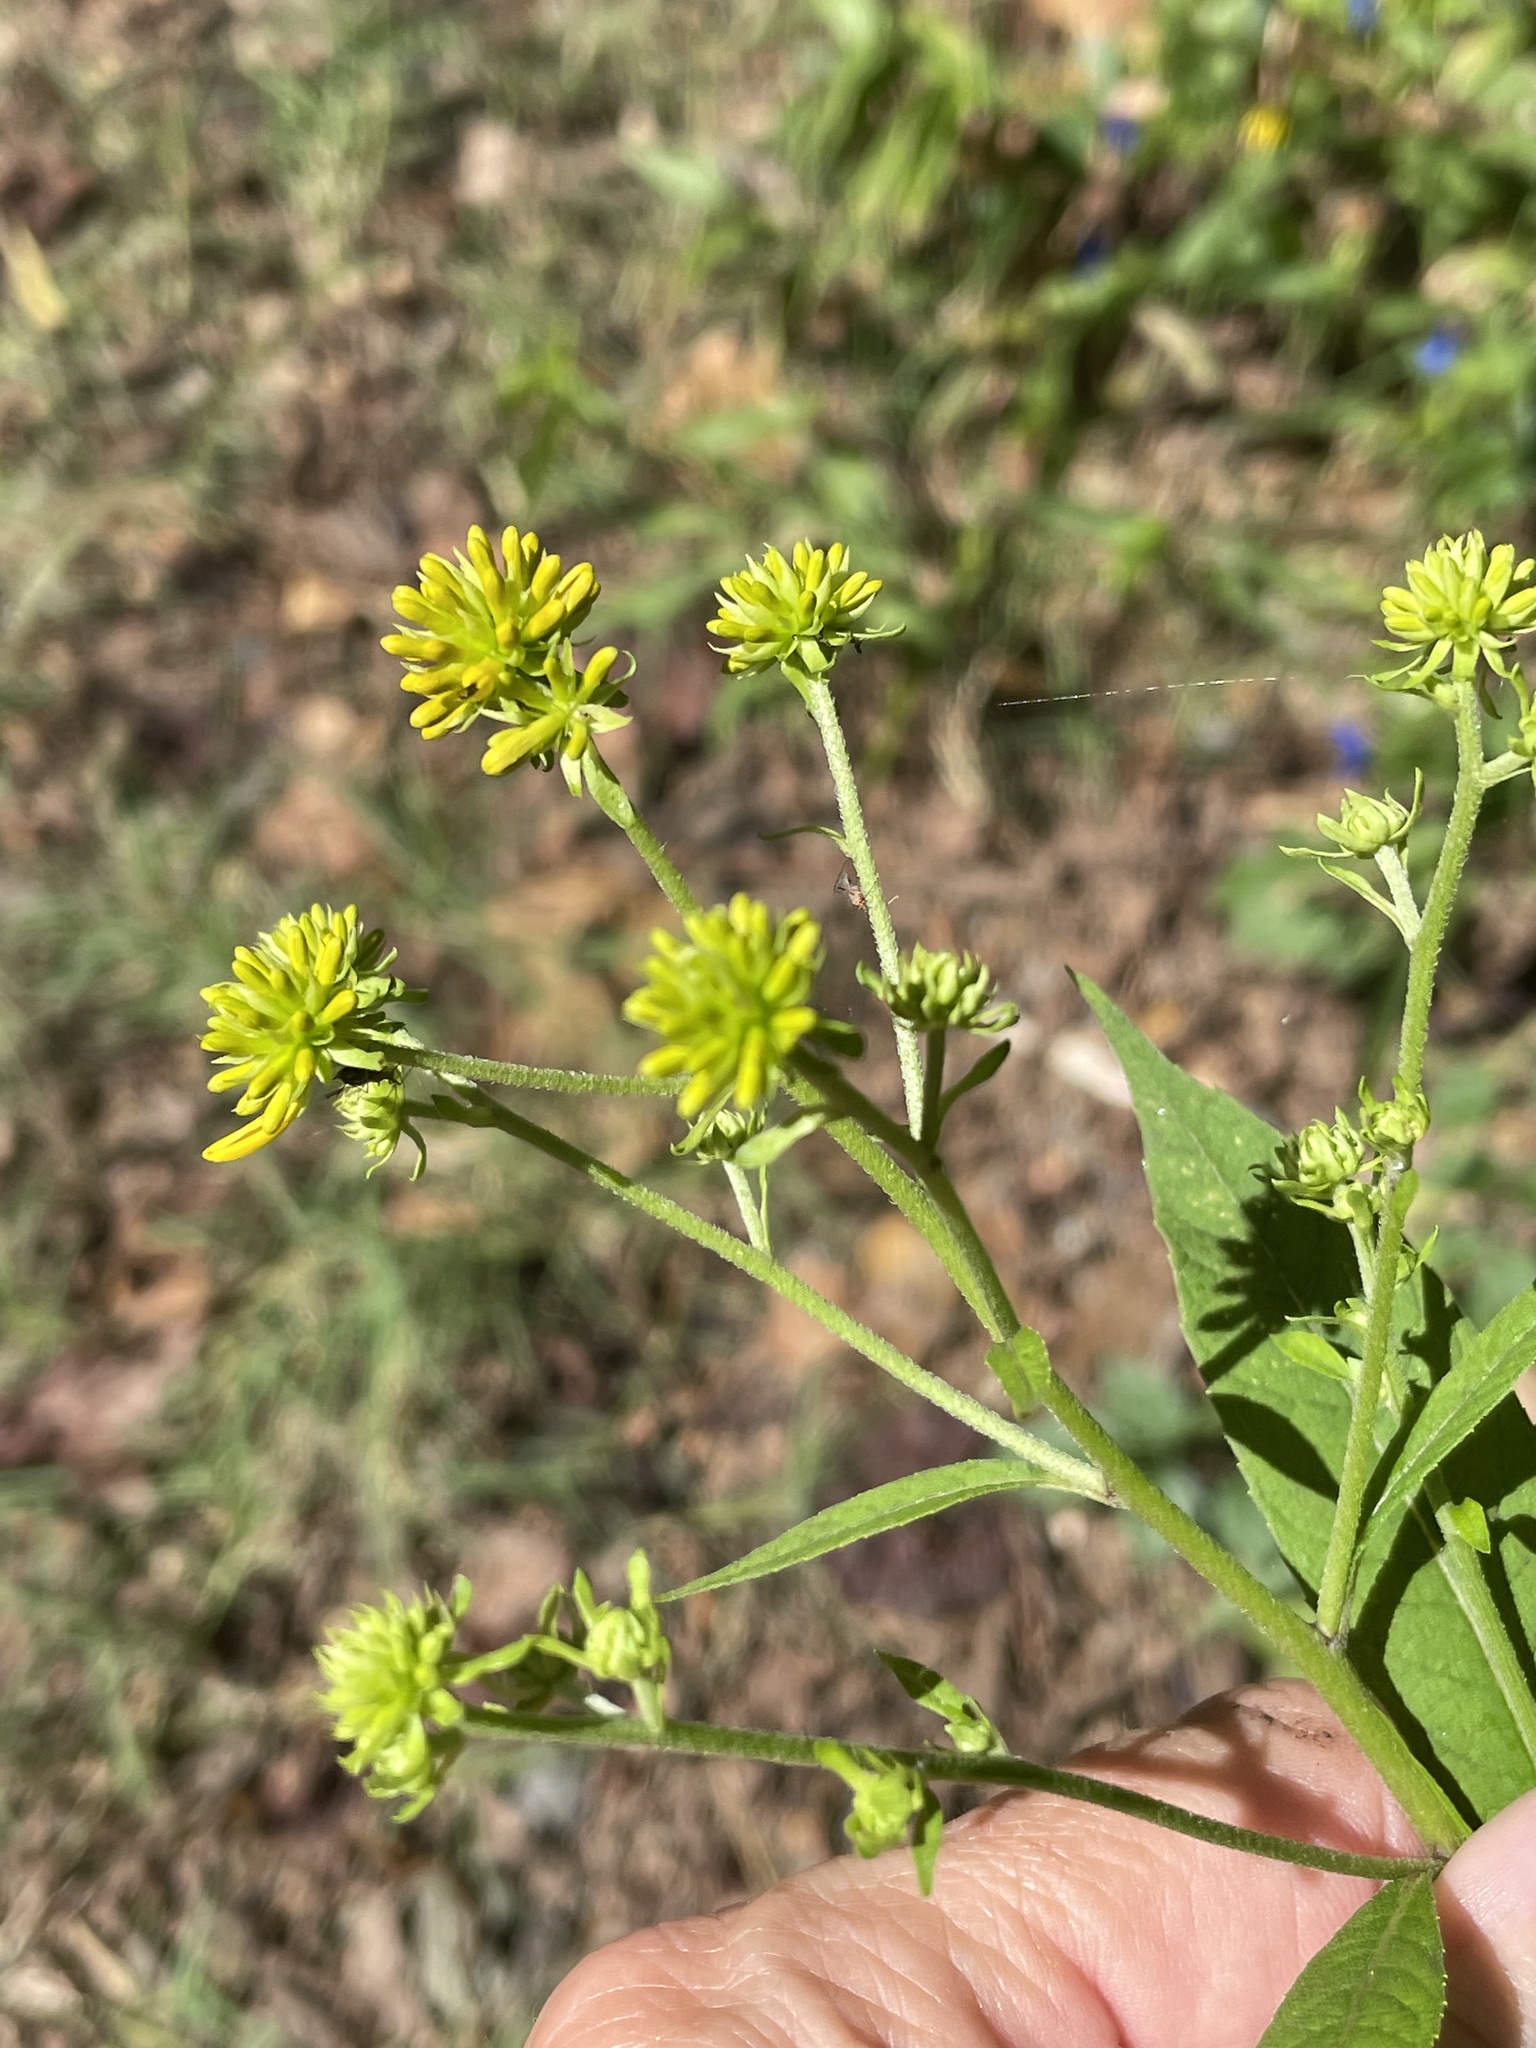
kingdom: Plantae
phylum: Tracheophyta
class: Magnoliopsida
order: Asterales
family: Asteraceae
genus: Verbesina
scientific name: Verbesina alternifolia
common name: Wingstem
